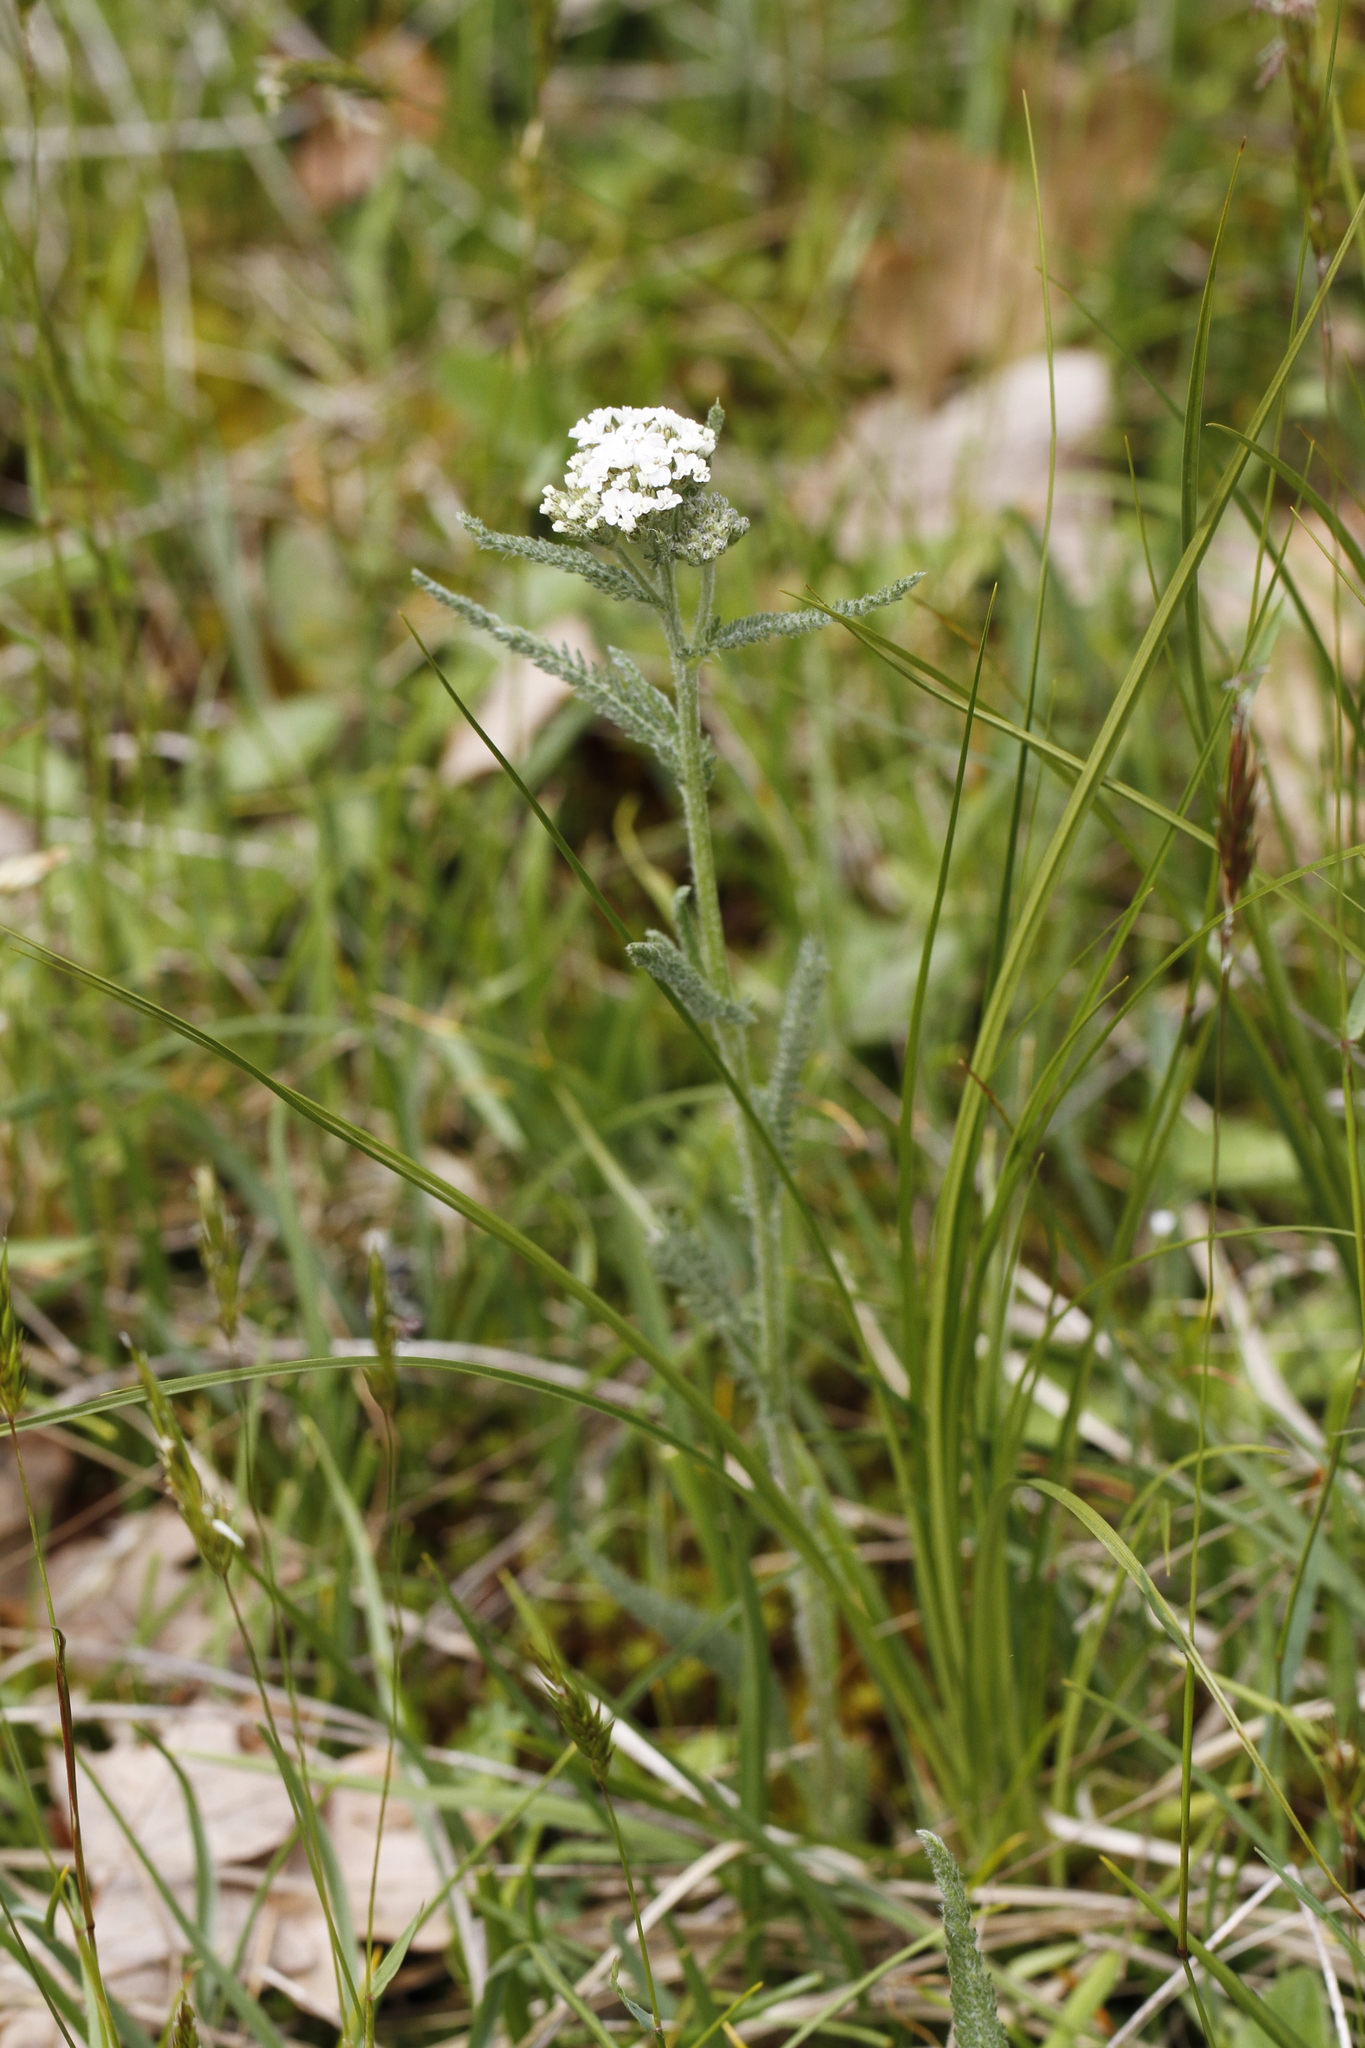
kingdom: Plantae
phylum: Tracheophyta
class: Magnoliopsida
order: Asterales
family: Asteraceae
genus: Achillea
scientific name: Achillea millefolium
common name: Yarrow
